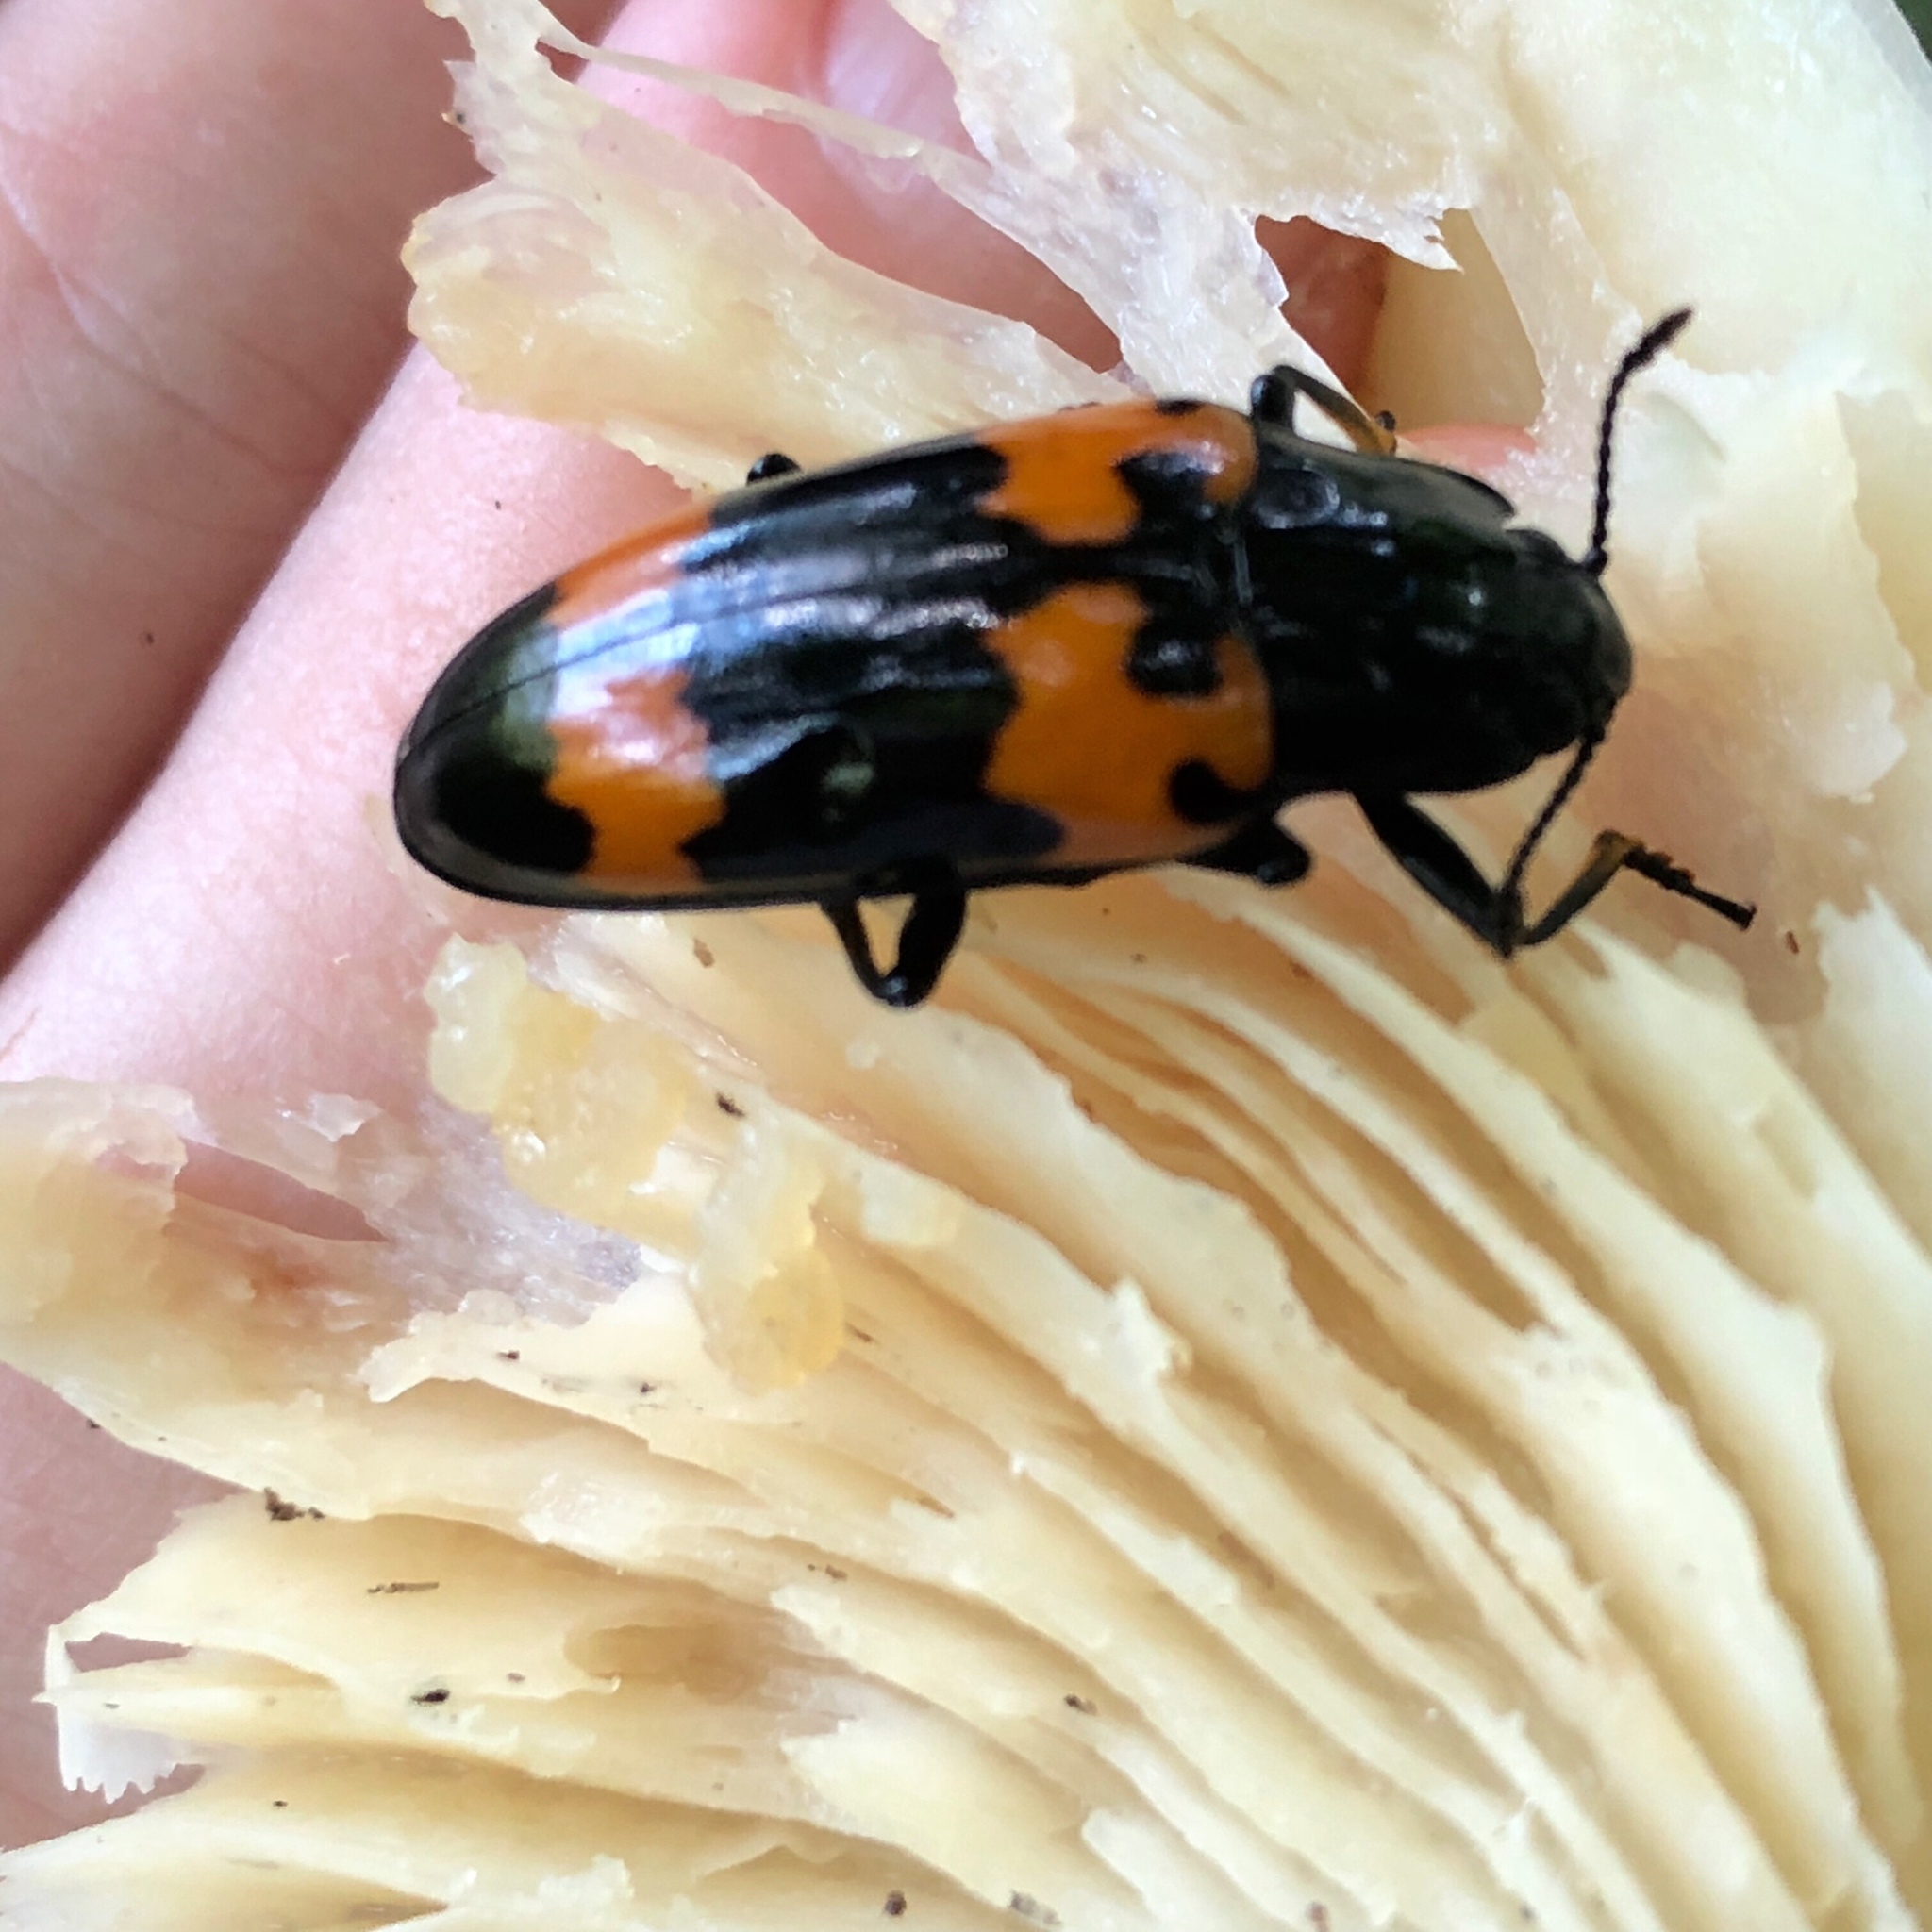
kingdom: Animalia
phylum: Arthropoda
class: Insecta
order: Coleoptera
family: Erotylidae
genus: Megalodacne
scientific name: Megalodacne heros
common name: Pleasing fungus beetle
